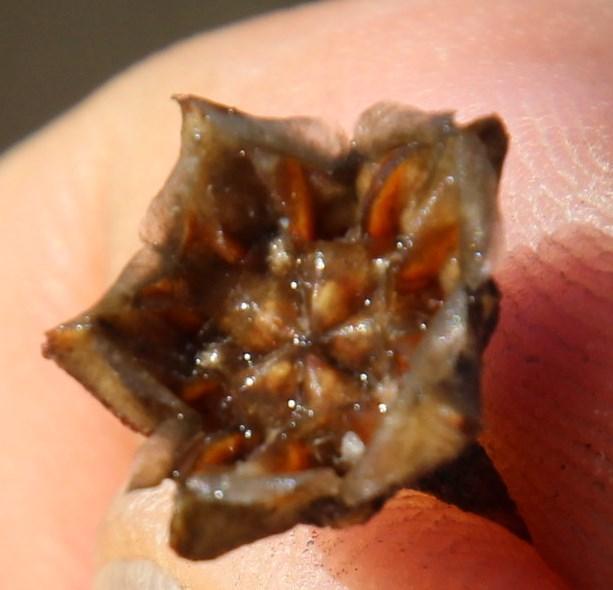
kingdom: Plantae
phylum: Tracheophyta
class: Magnoliopsida
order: Caryophyllales
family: Aizoaceae
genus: Lampranthus
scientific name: Lampranthus glaucus
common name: Noonflower
